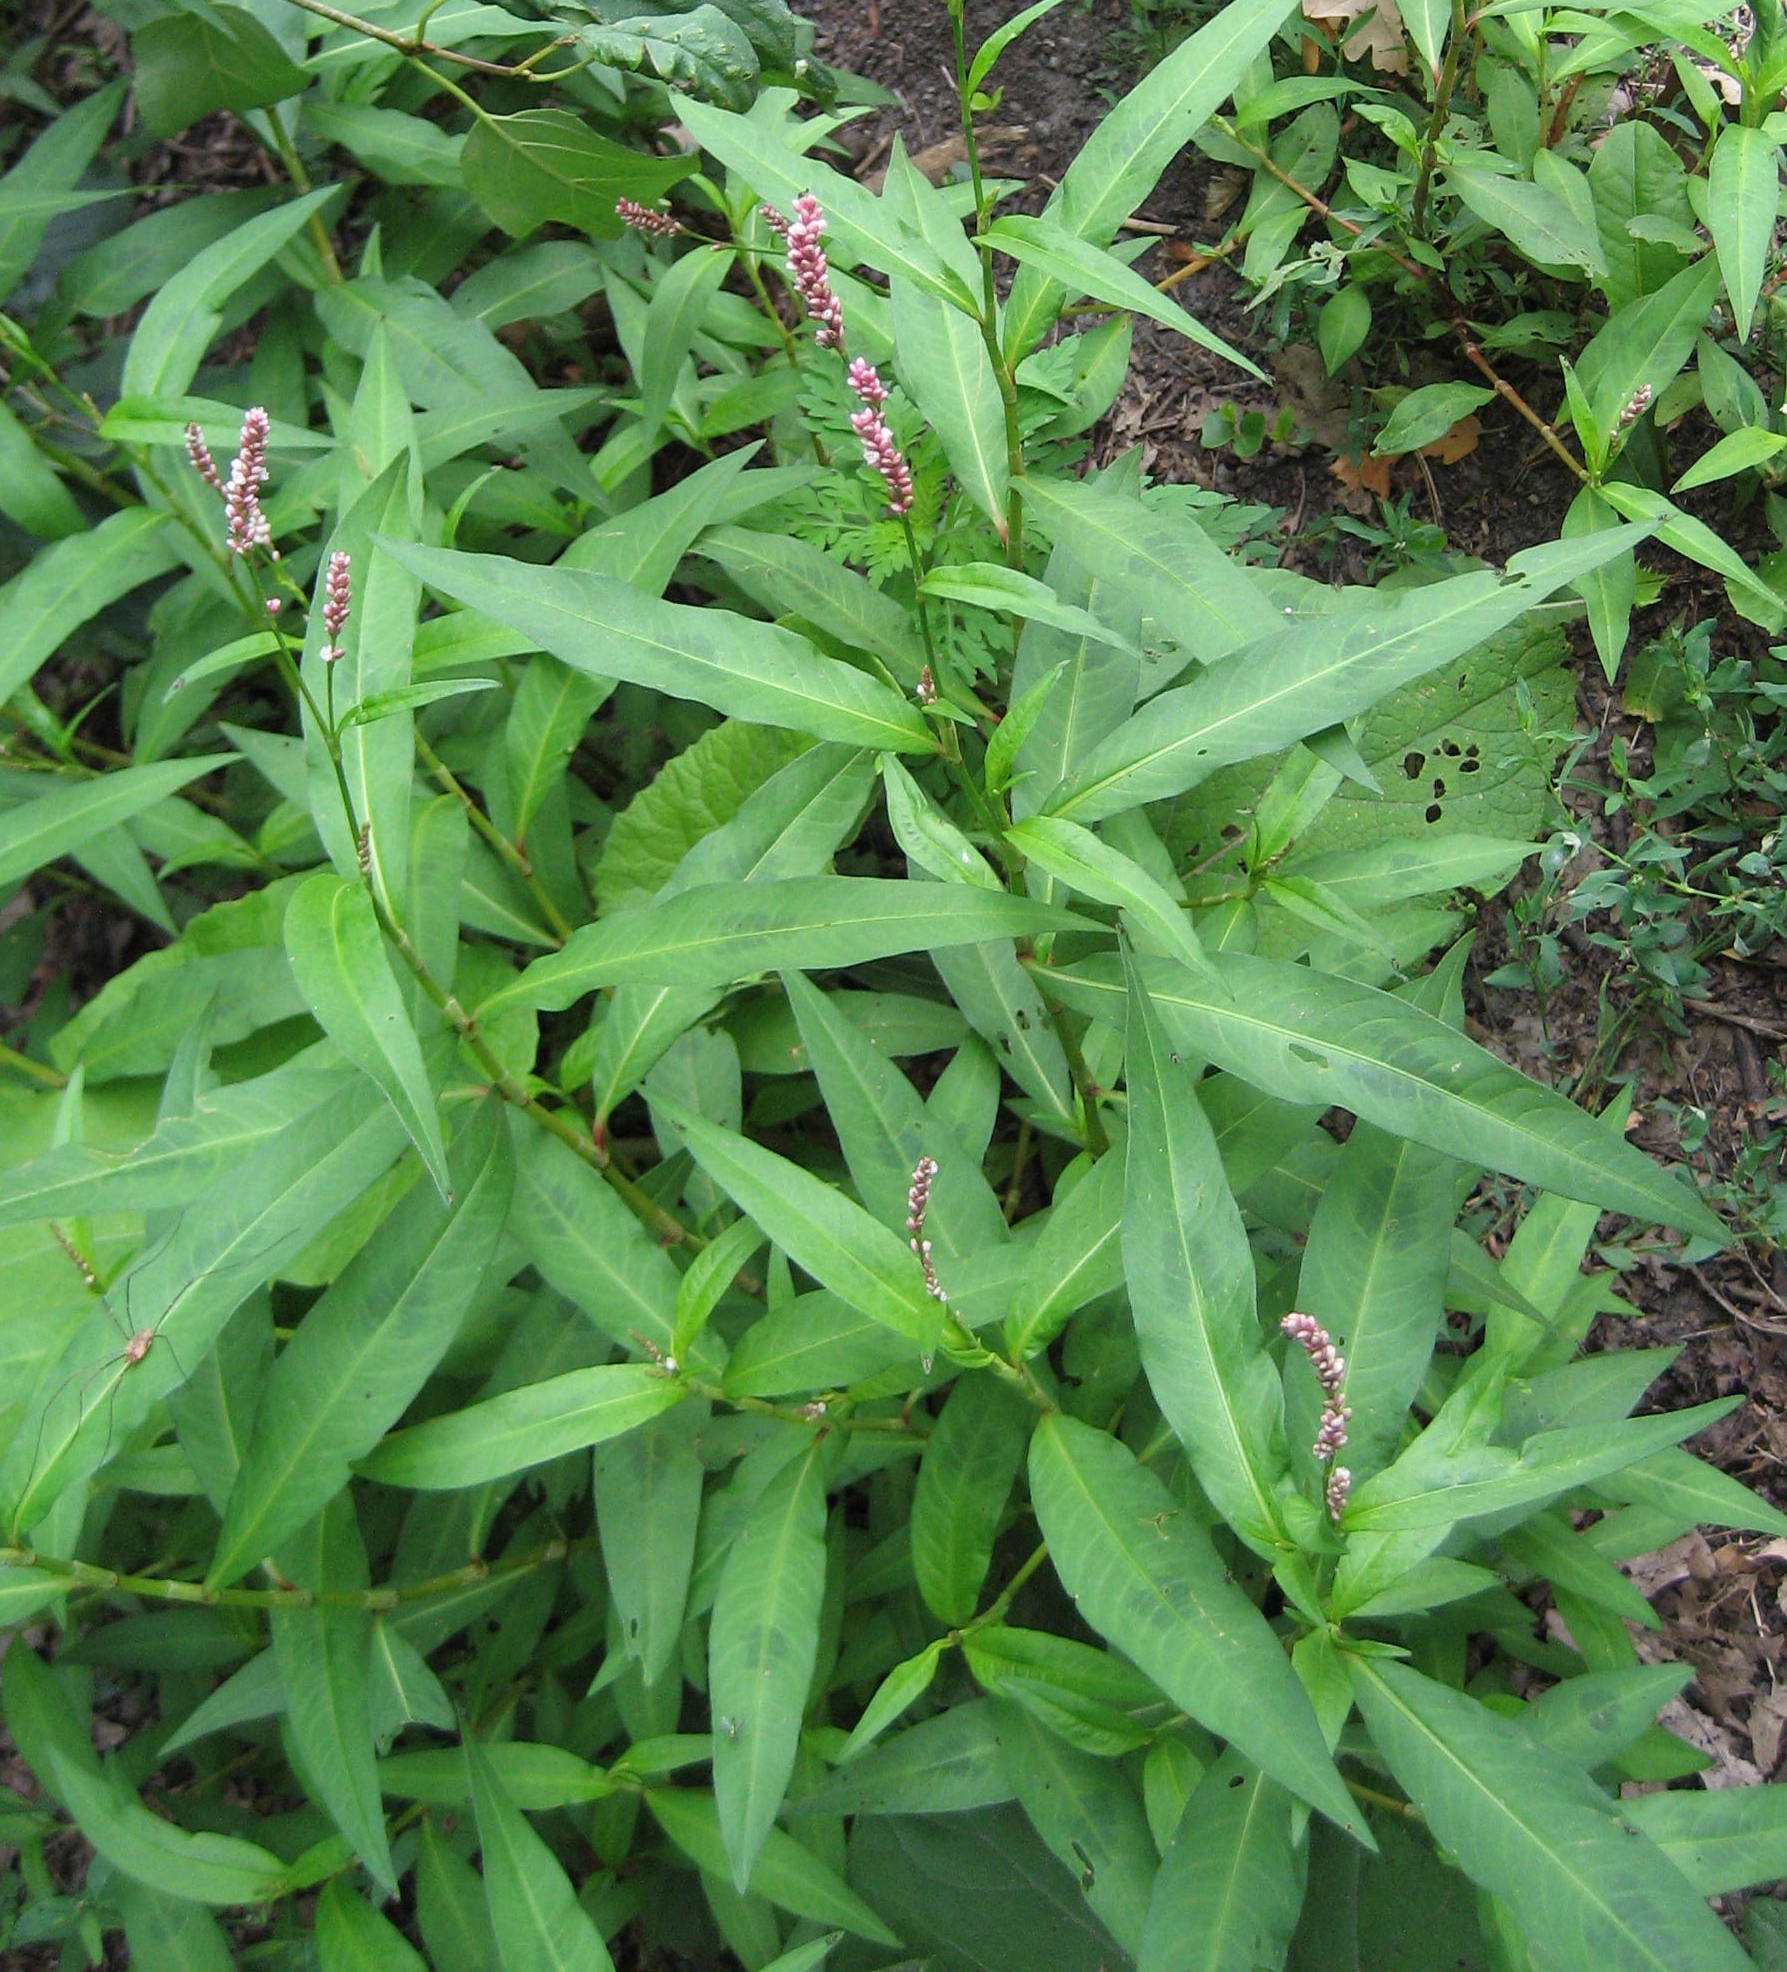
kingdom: Plantae
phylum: Tracheophyta
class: Magnoliopsida
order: Caryophyllales
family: Polygonaceae
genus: Persicaria
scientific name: Persicaria maculosa
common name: Redshank
